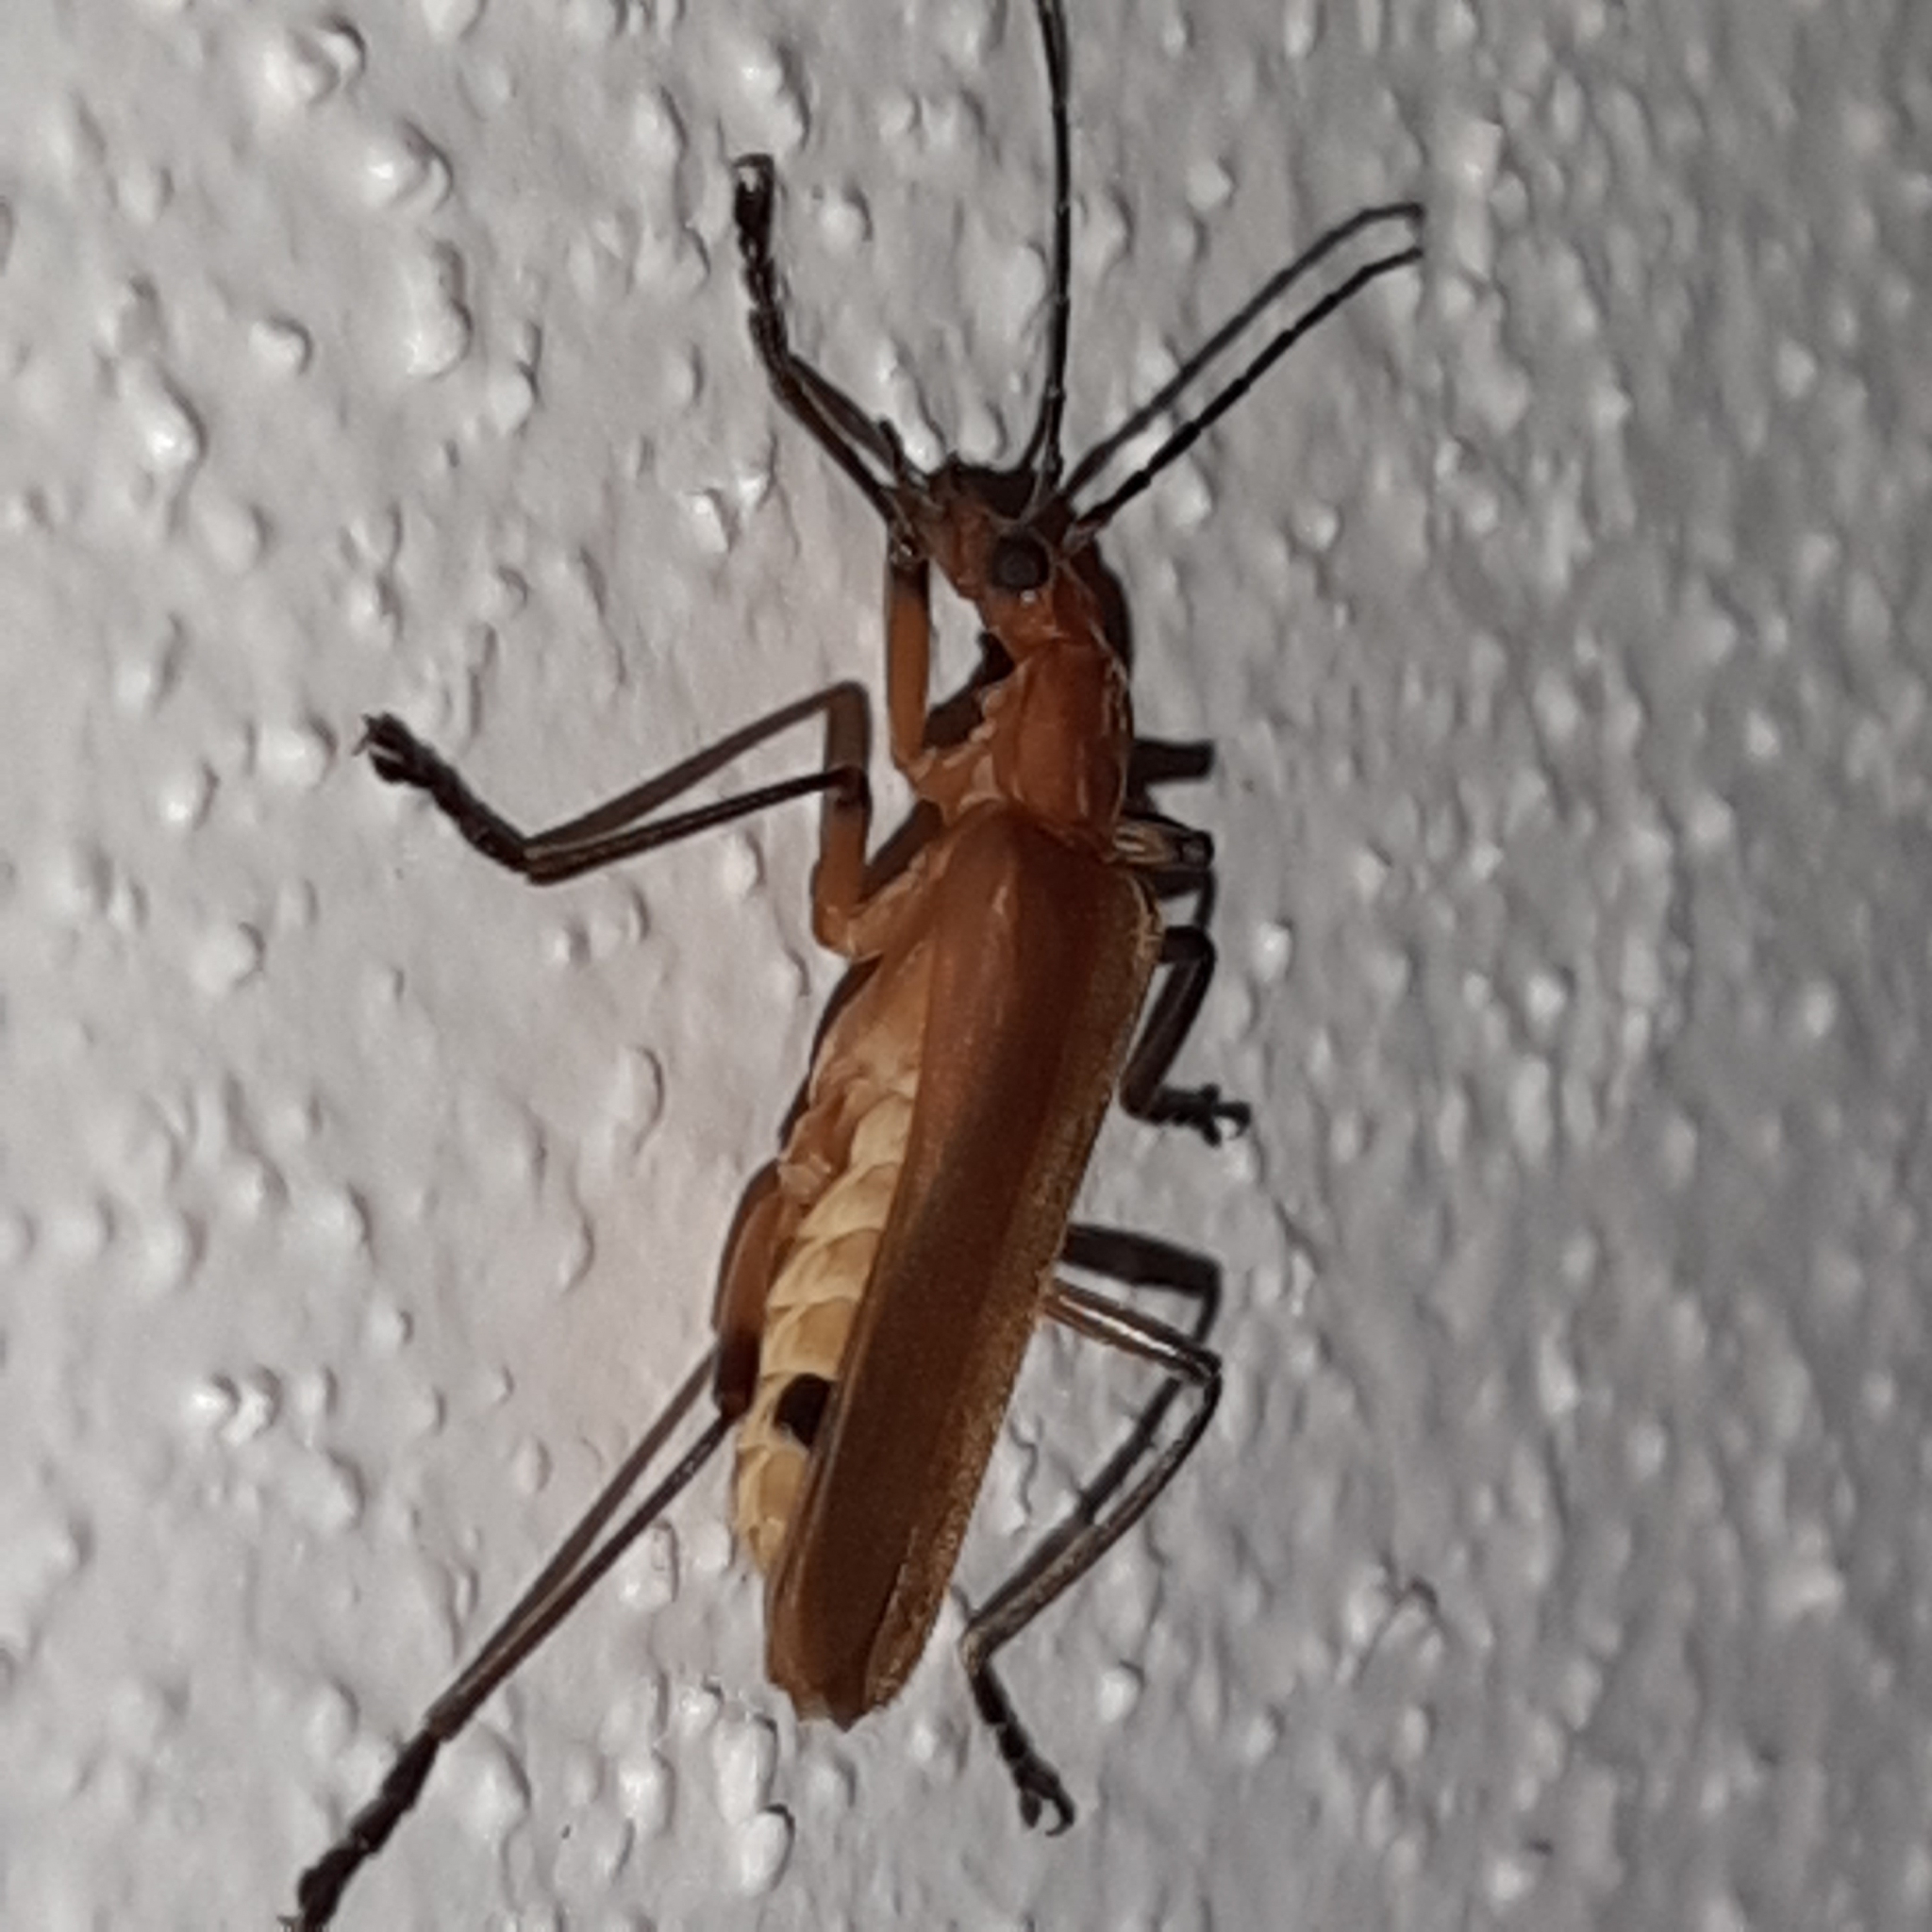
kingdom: Animalia
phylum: Arthropoda
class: Insecta
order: Coleoptera
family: Cantharidae
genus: Chauliognathus
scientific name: Chauliognathus
